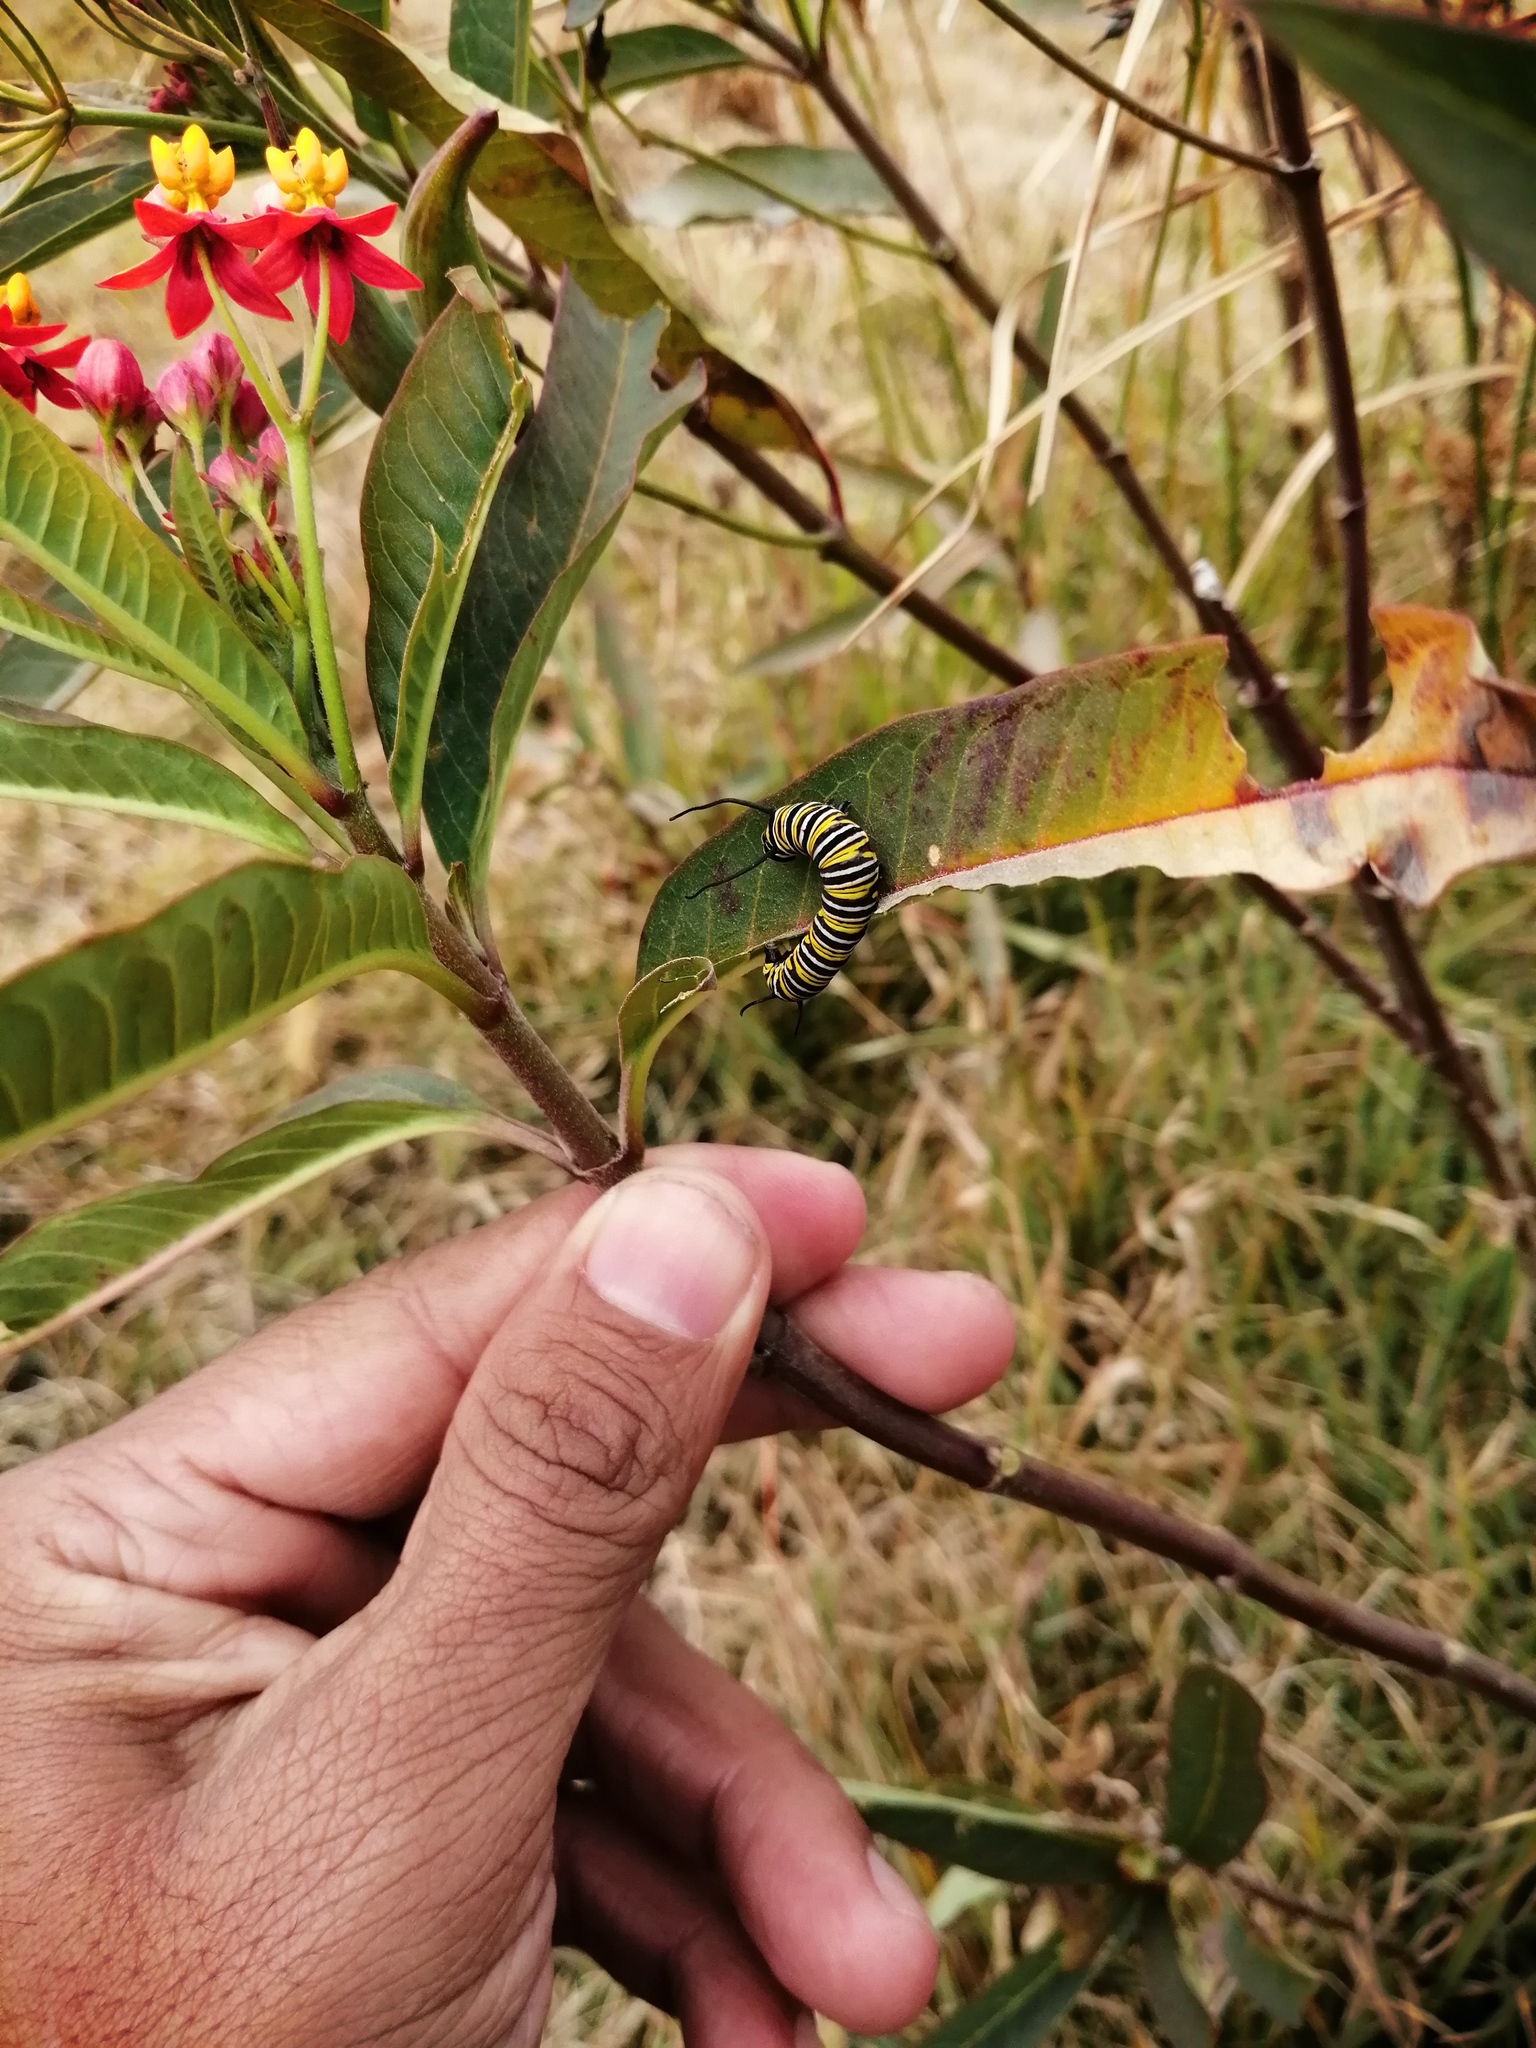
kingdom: Animalia
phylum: Arthropoda
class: Insecta
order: Lepidoptera
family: Nymphalidae
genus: Danaus
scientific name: Danaus plexippus
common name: Monarch
